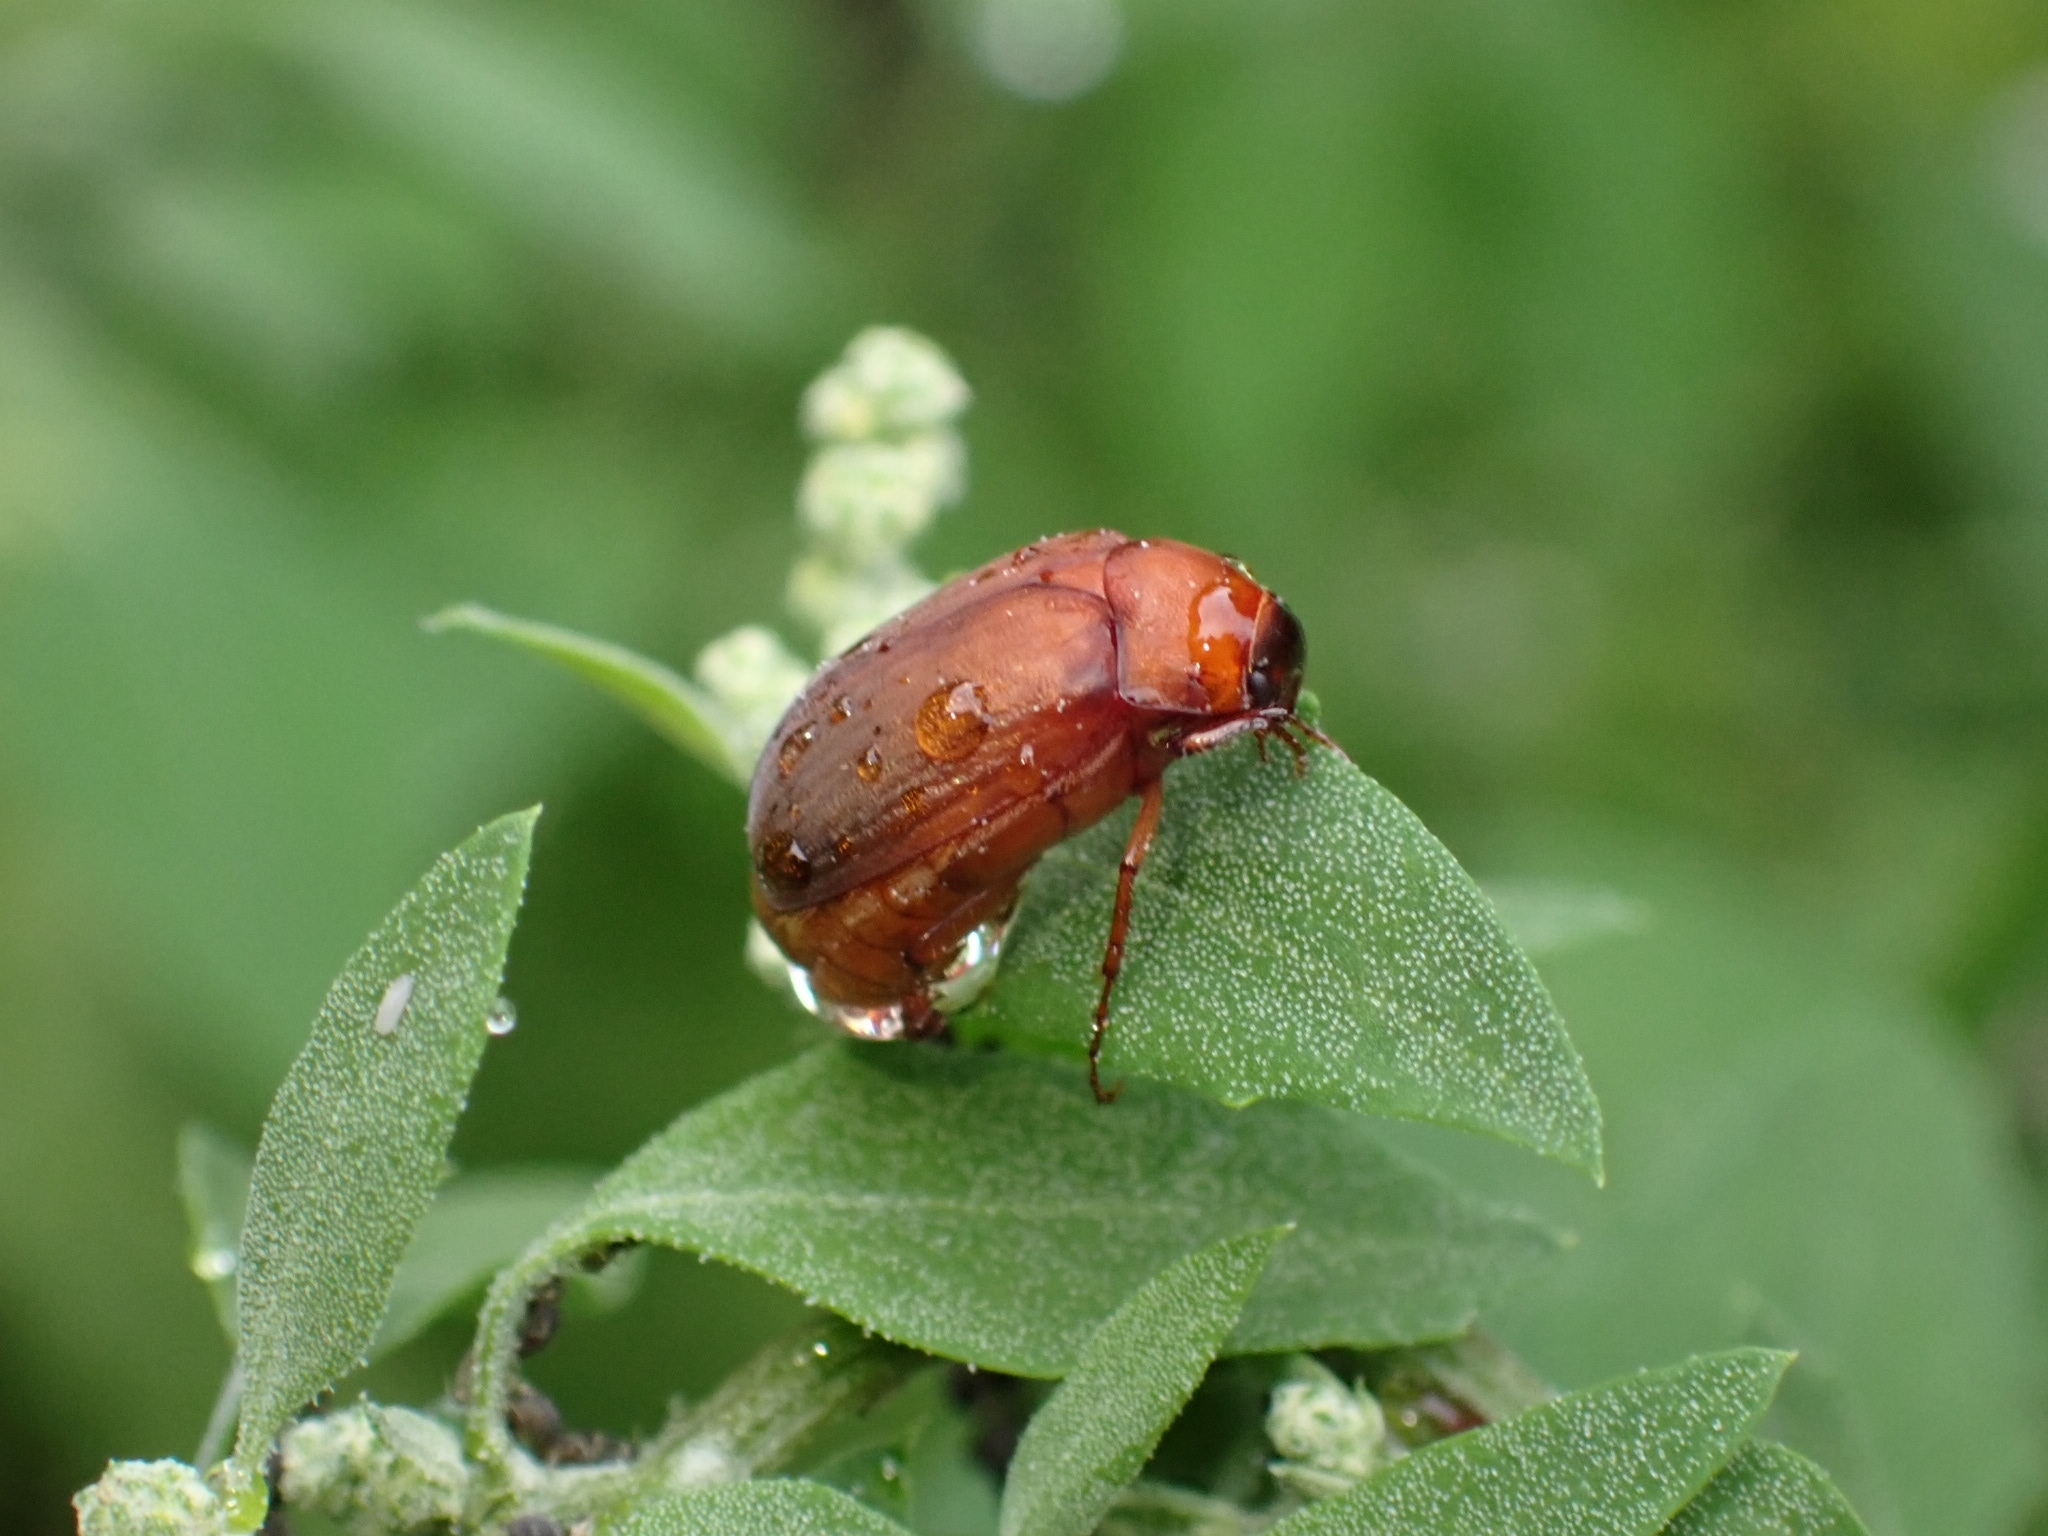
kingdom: Animalia
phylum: Arthropoda
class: Insecta
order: Coleoptera
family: Scarabaeidae
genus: Serica
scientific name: Serica brunnea
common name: Brown chafer
